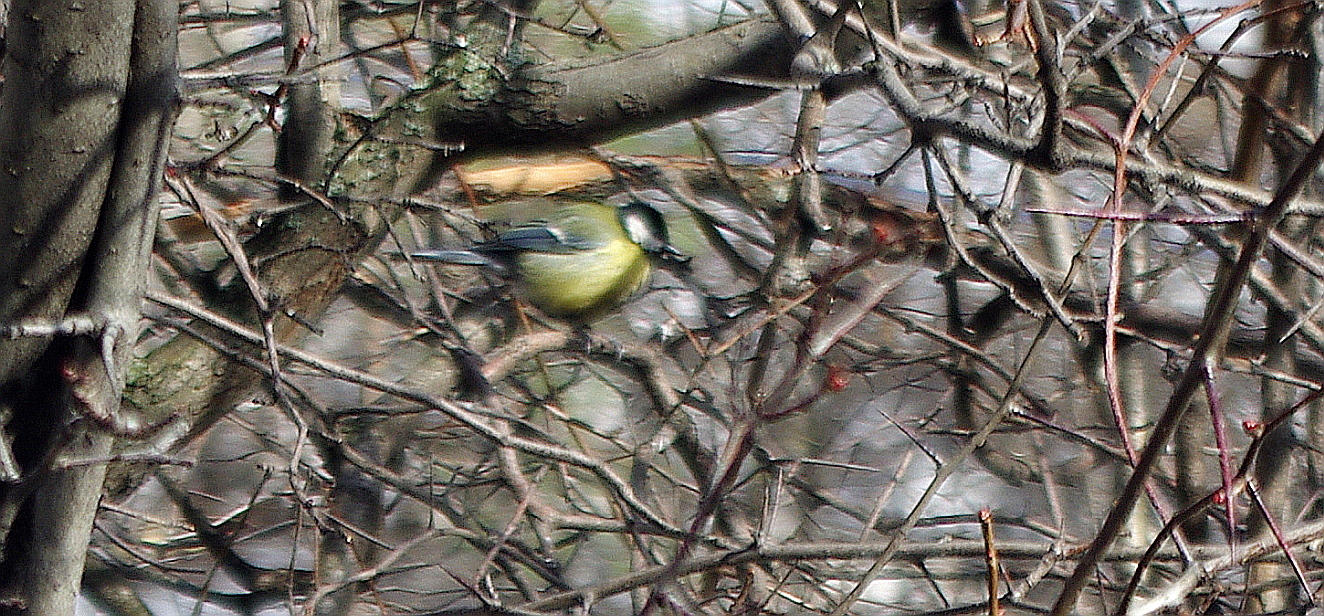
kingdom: Animalia
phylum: Chordata
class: Aves
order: Passeriformes
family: Paridae
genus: Parus
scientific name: Parus major
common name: Great tit
